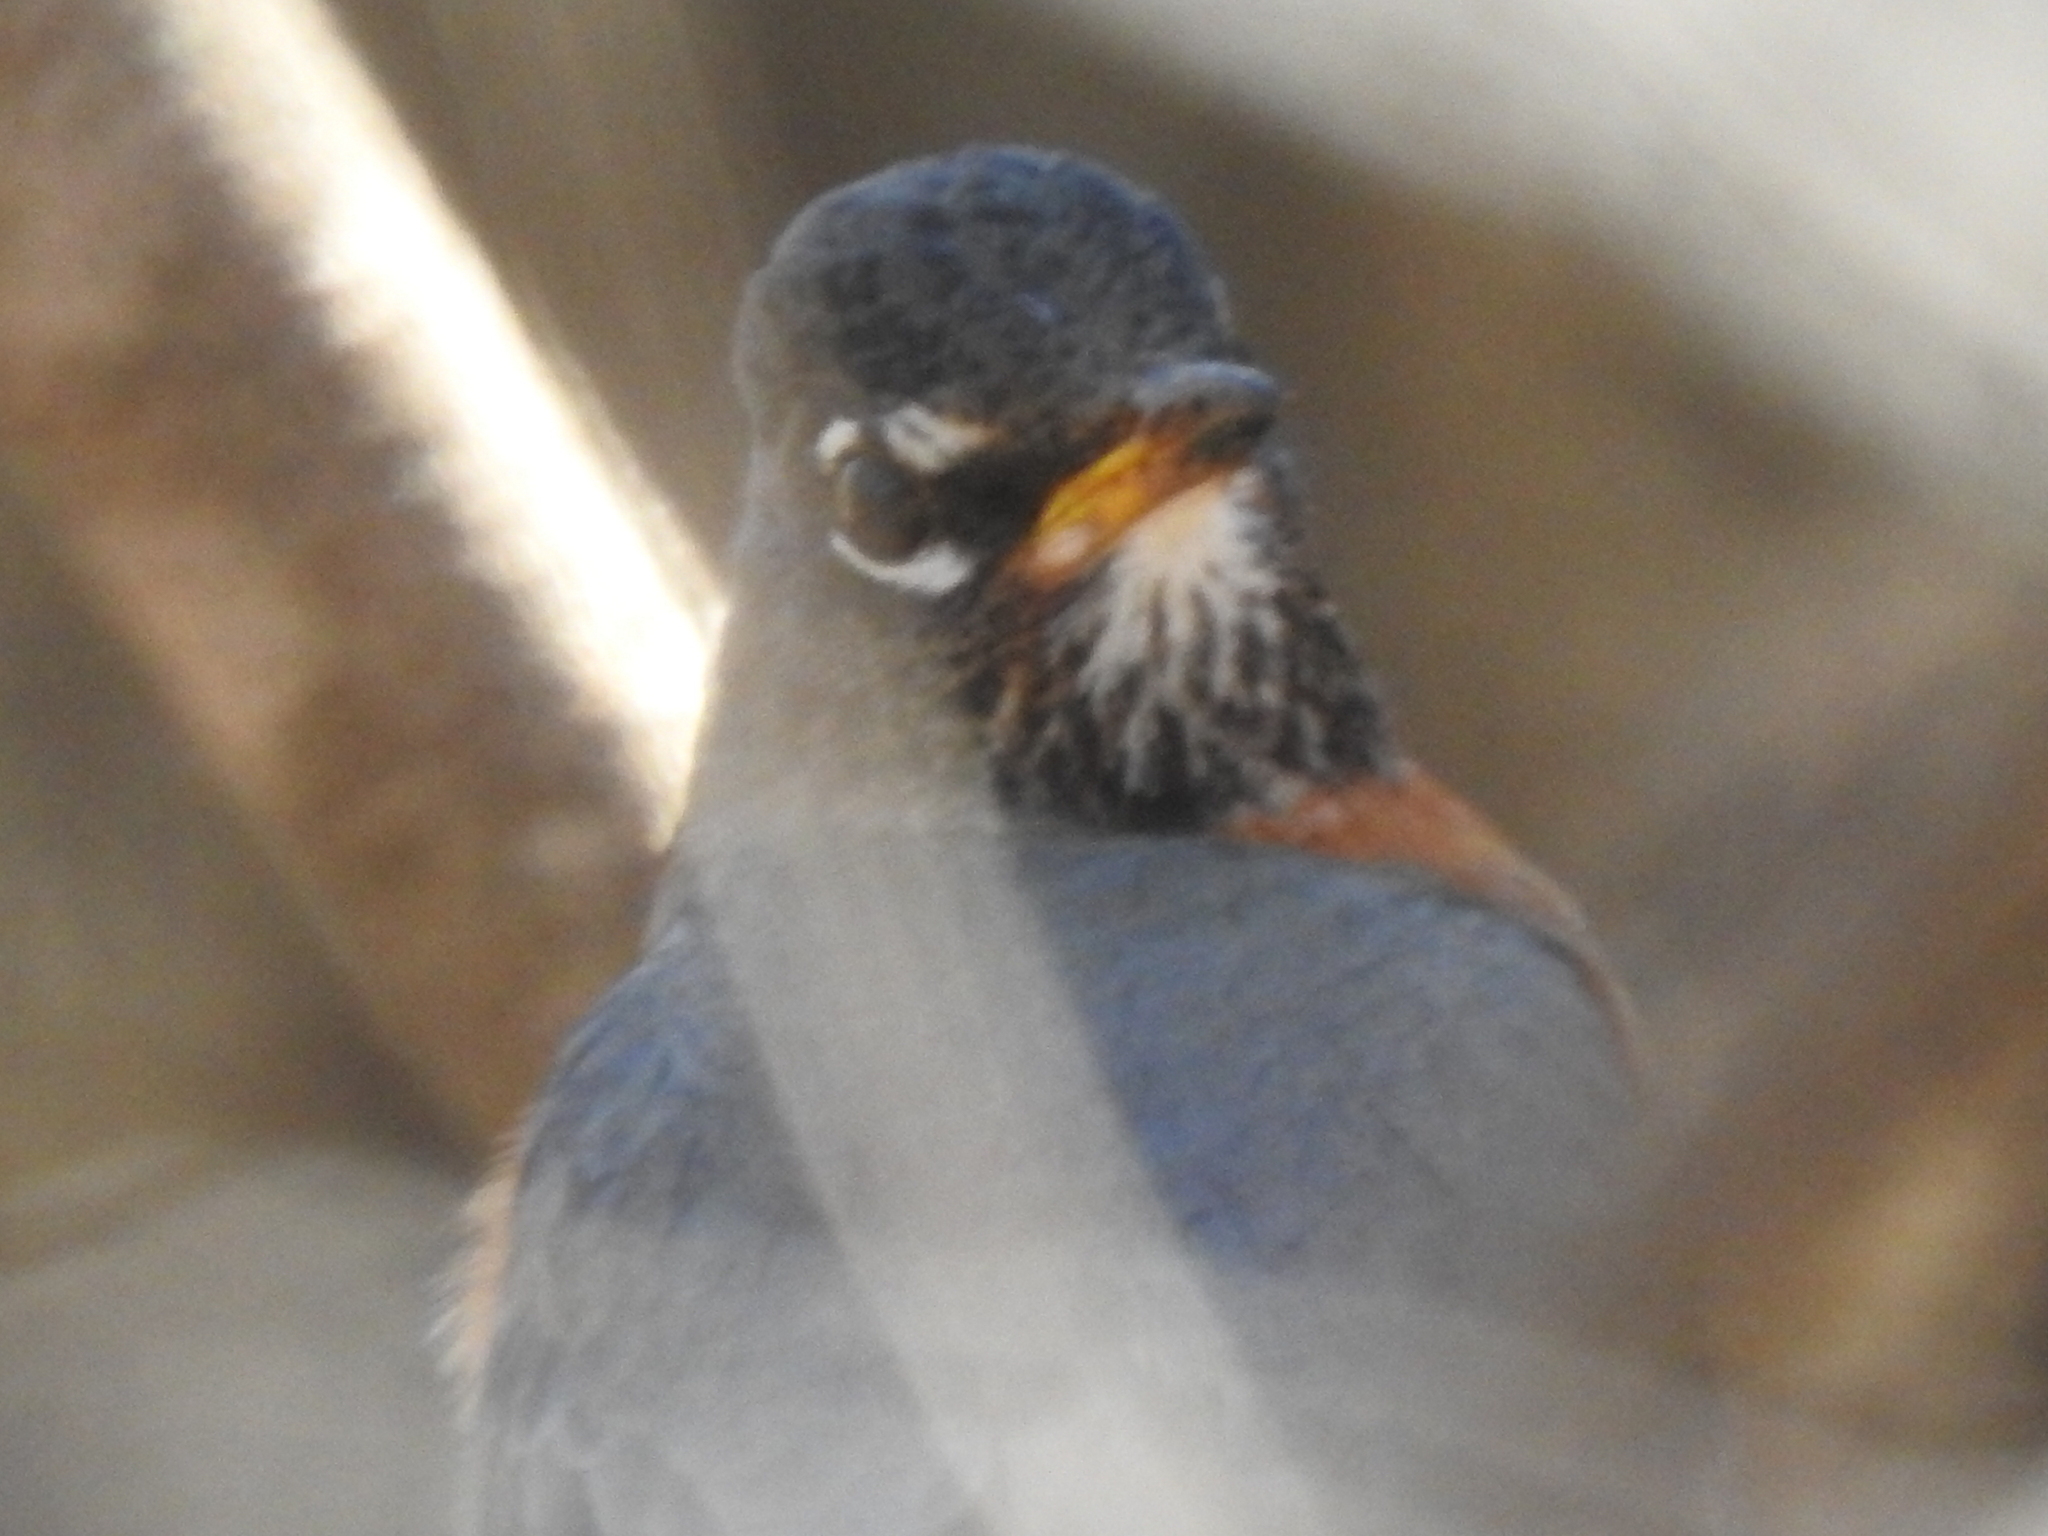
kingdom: Animalia
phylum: Chordata
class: Aves
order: Passeriformes
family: Turdidae
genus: Turdus
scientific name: Turdus migratorius
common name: American robin
